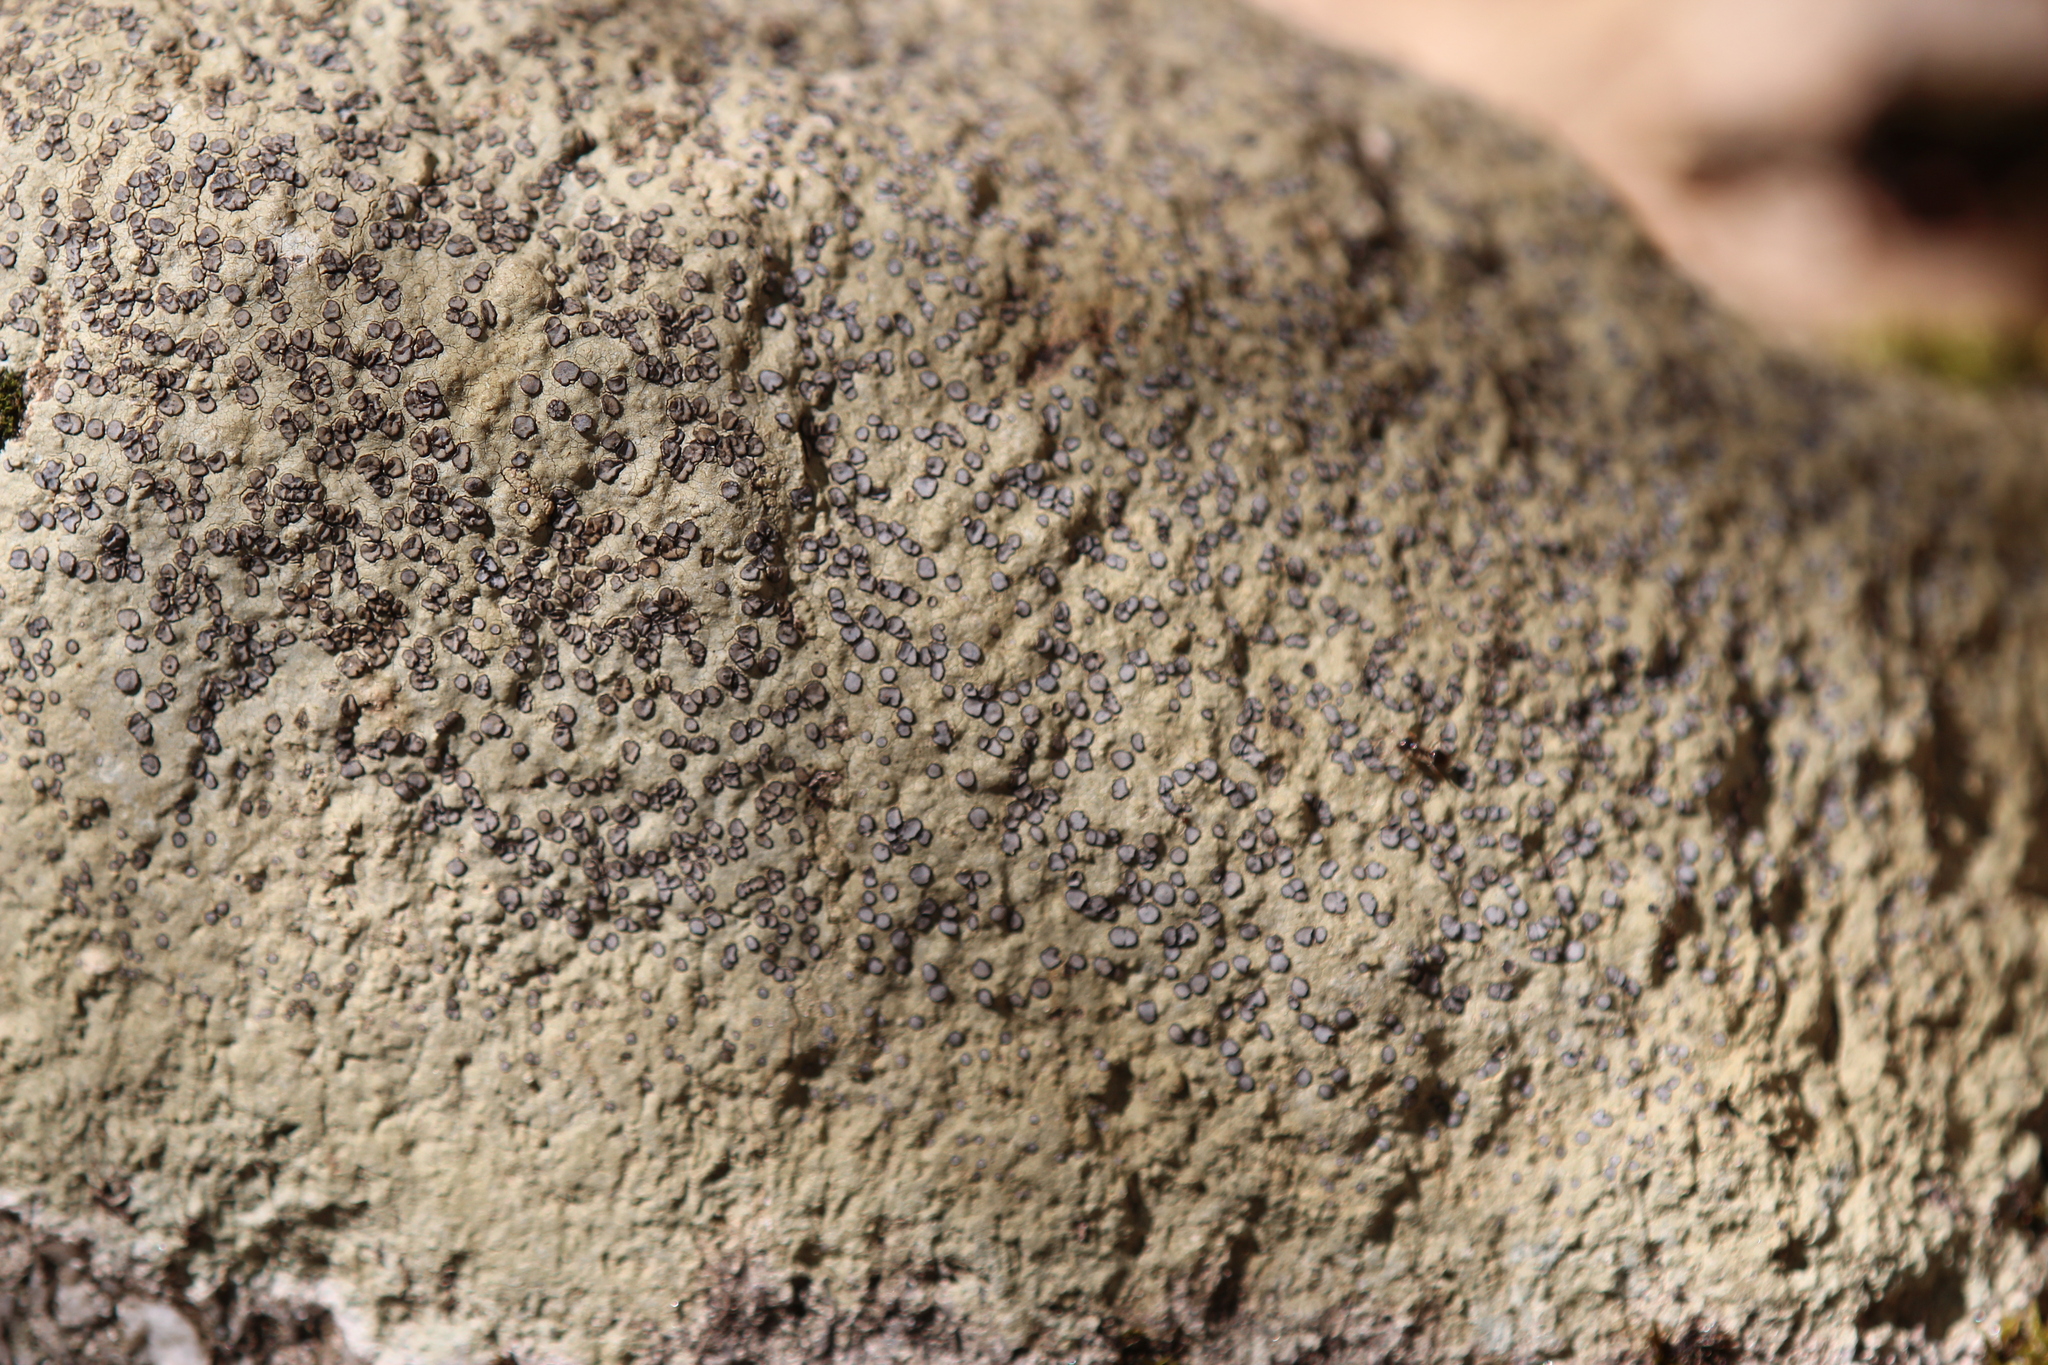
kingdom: Fungi
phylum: Ascomycota
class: Lecanoromycetes
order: Lecideales
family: Lecideaceae
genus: Porpidia
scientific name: Porpidia albocaerulescens
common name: Smokey-eyed boulder lichen
